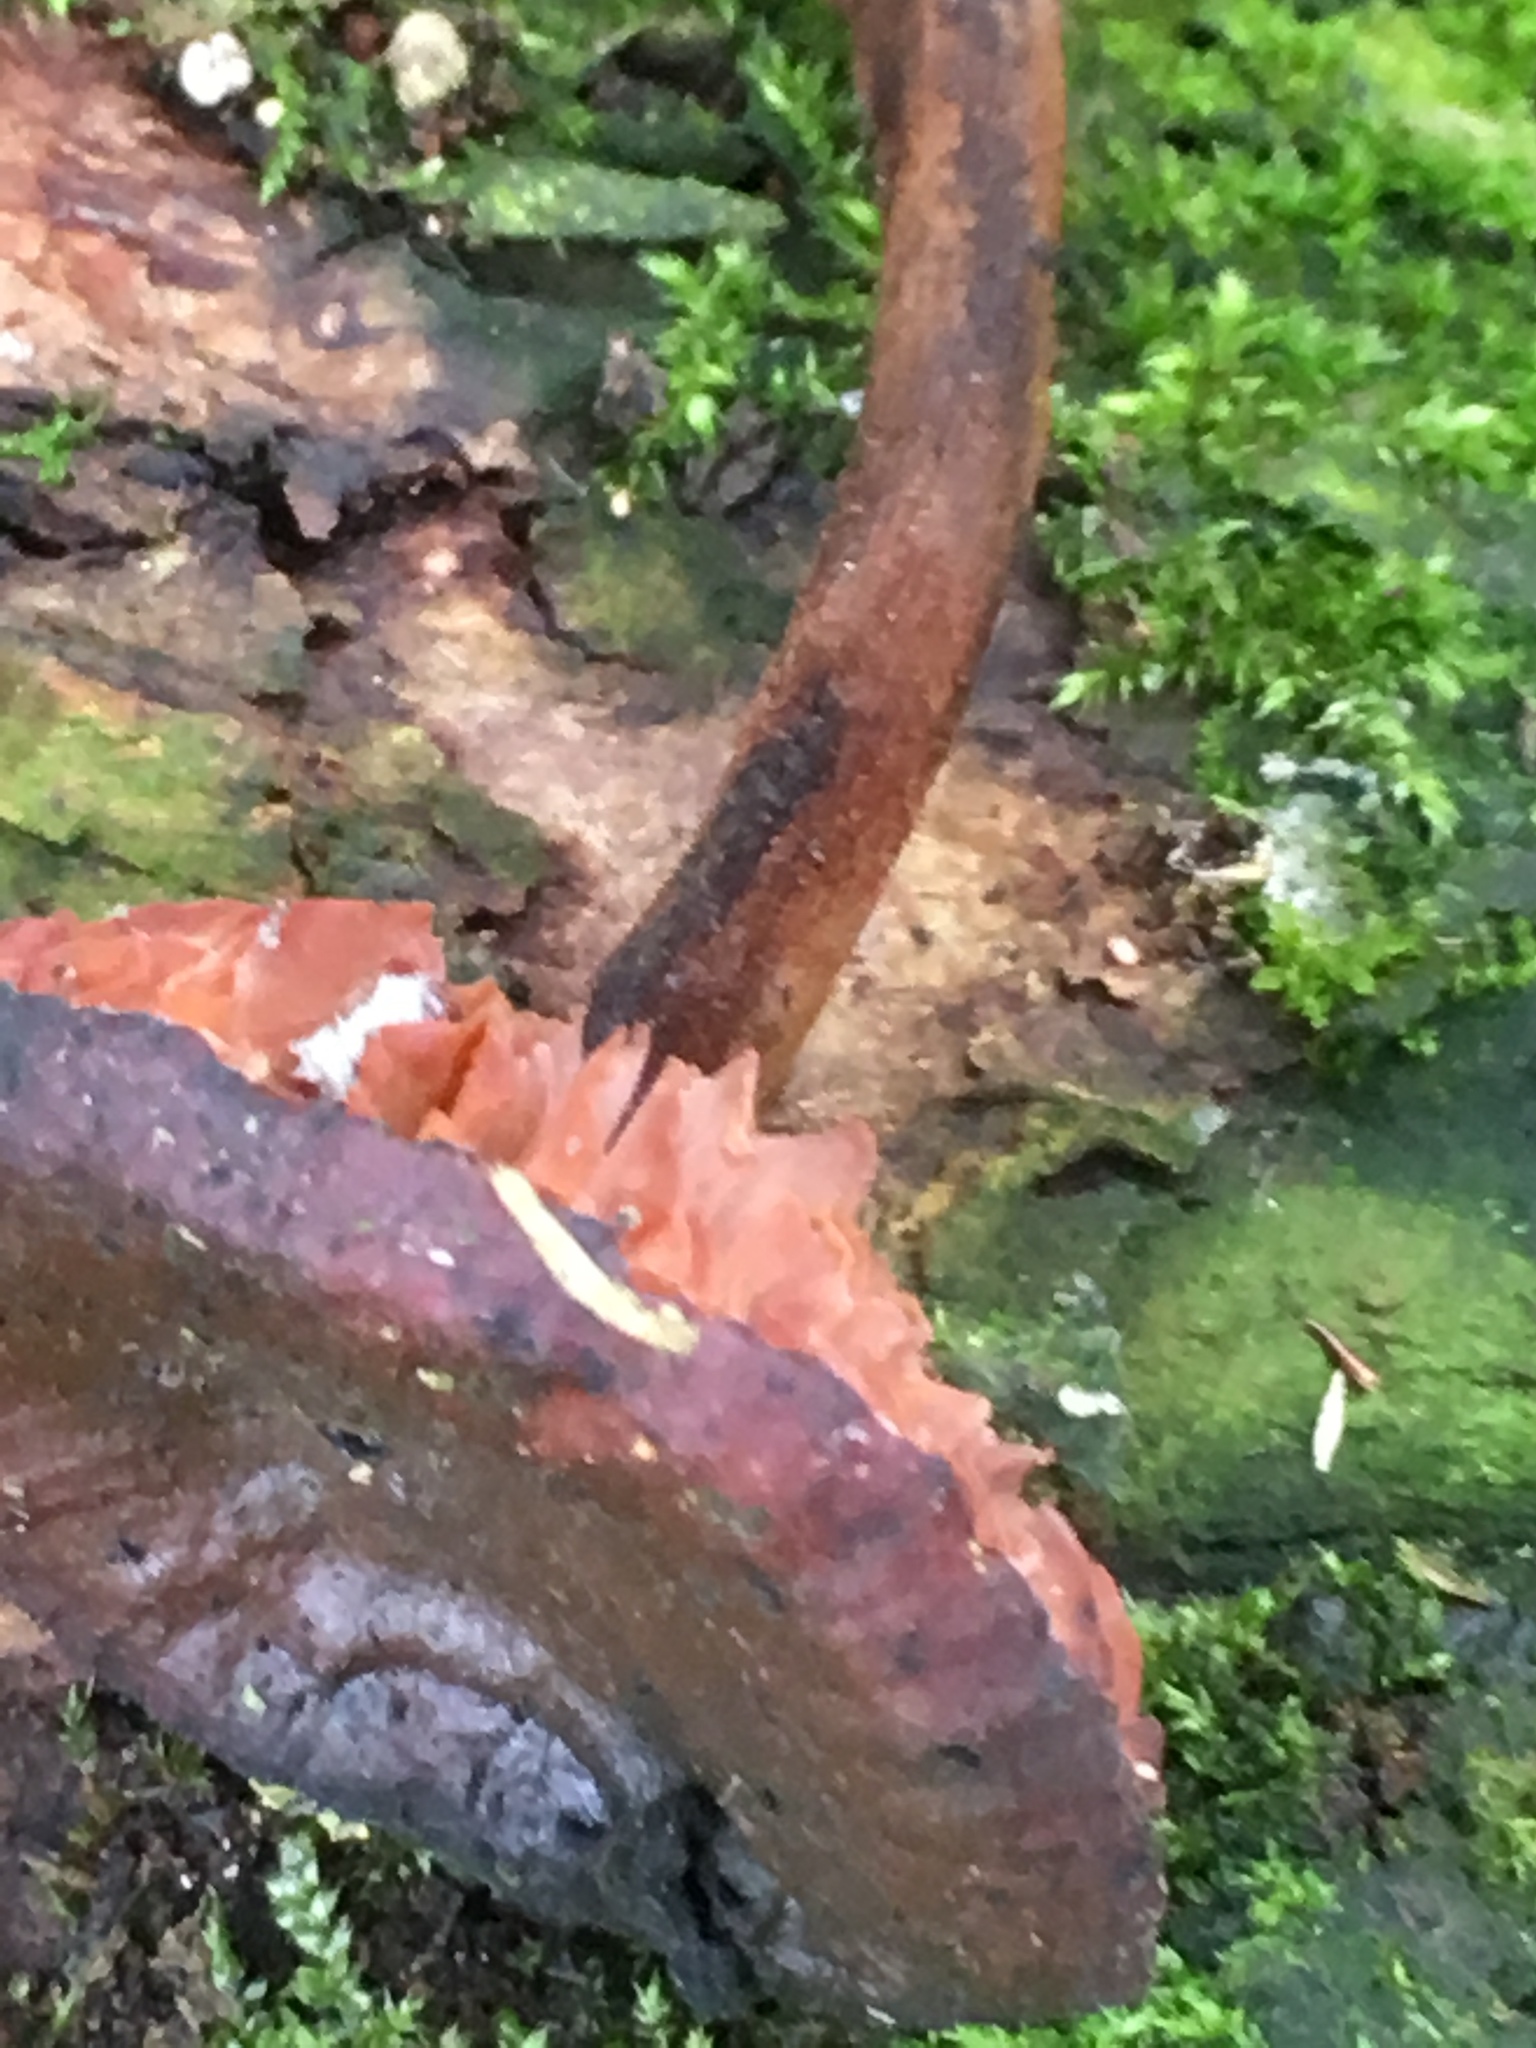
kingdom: Fungi
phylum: Basidiomycota
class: Agaricomycetes
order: Agaricales
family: Physalacriaceae
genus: Flammulina
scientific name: Flammulina
